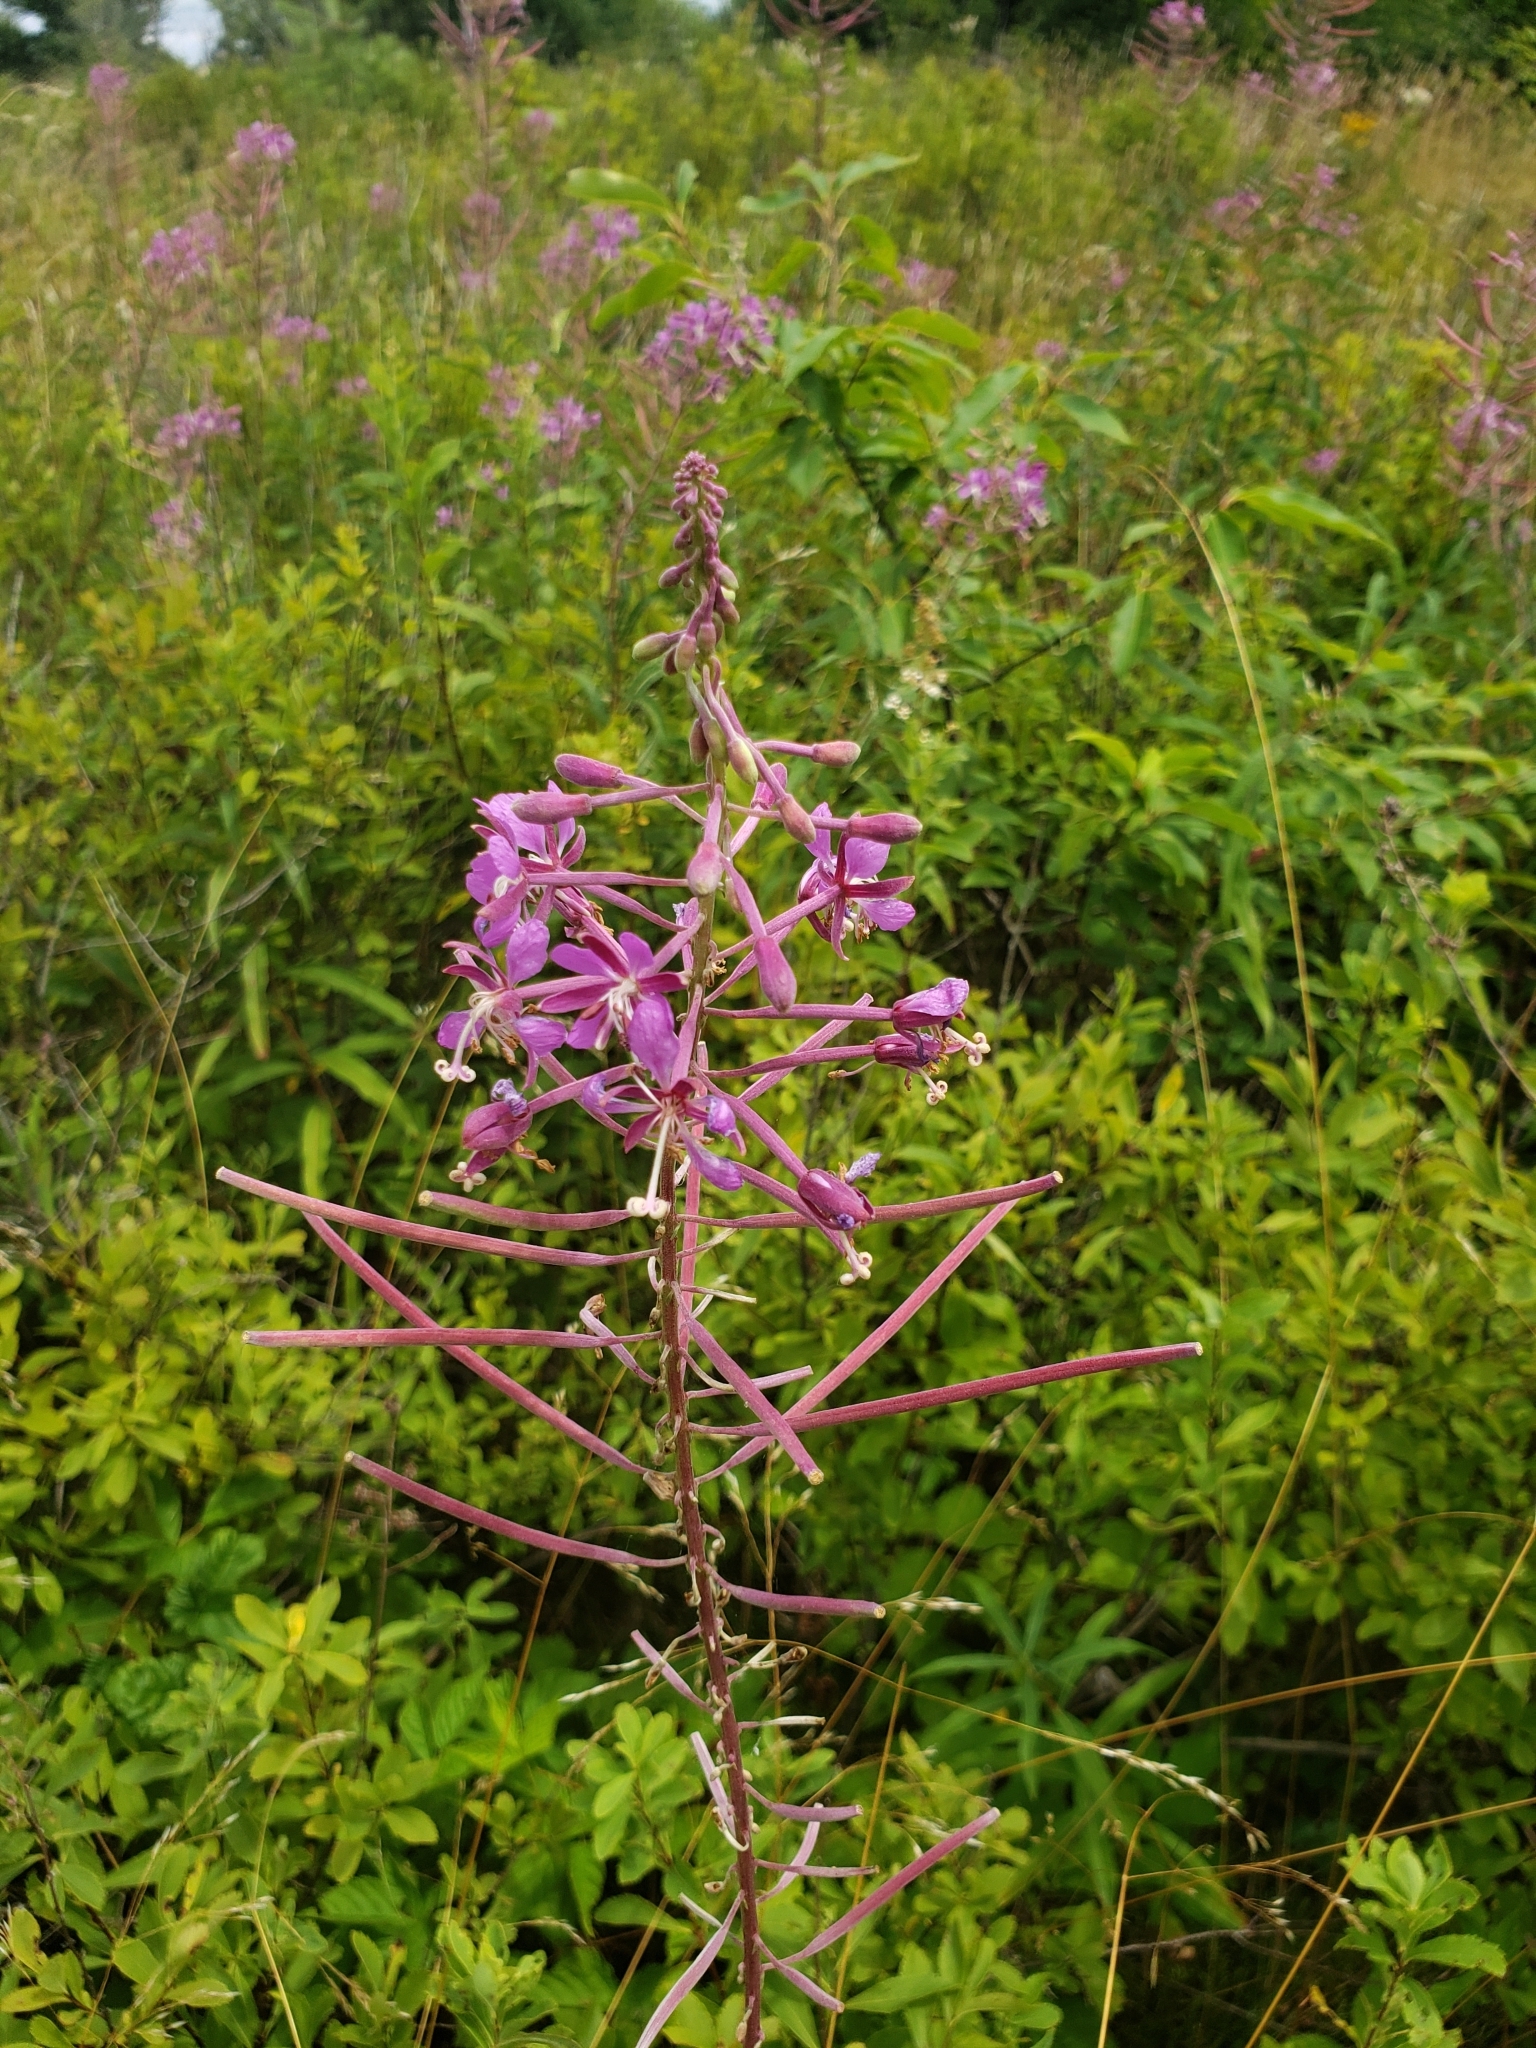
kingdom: Plantae
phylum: Tracheophyta
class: Magnoliopsida
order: Myrtales
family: Onagraceae
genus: Chamaenerion
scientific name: Chamaenerion angustifolium
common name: Fireweed
